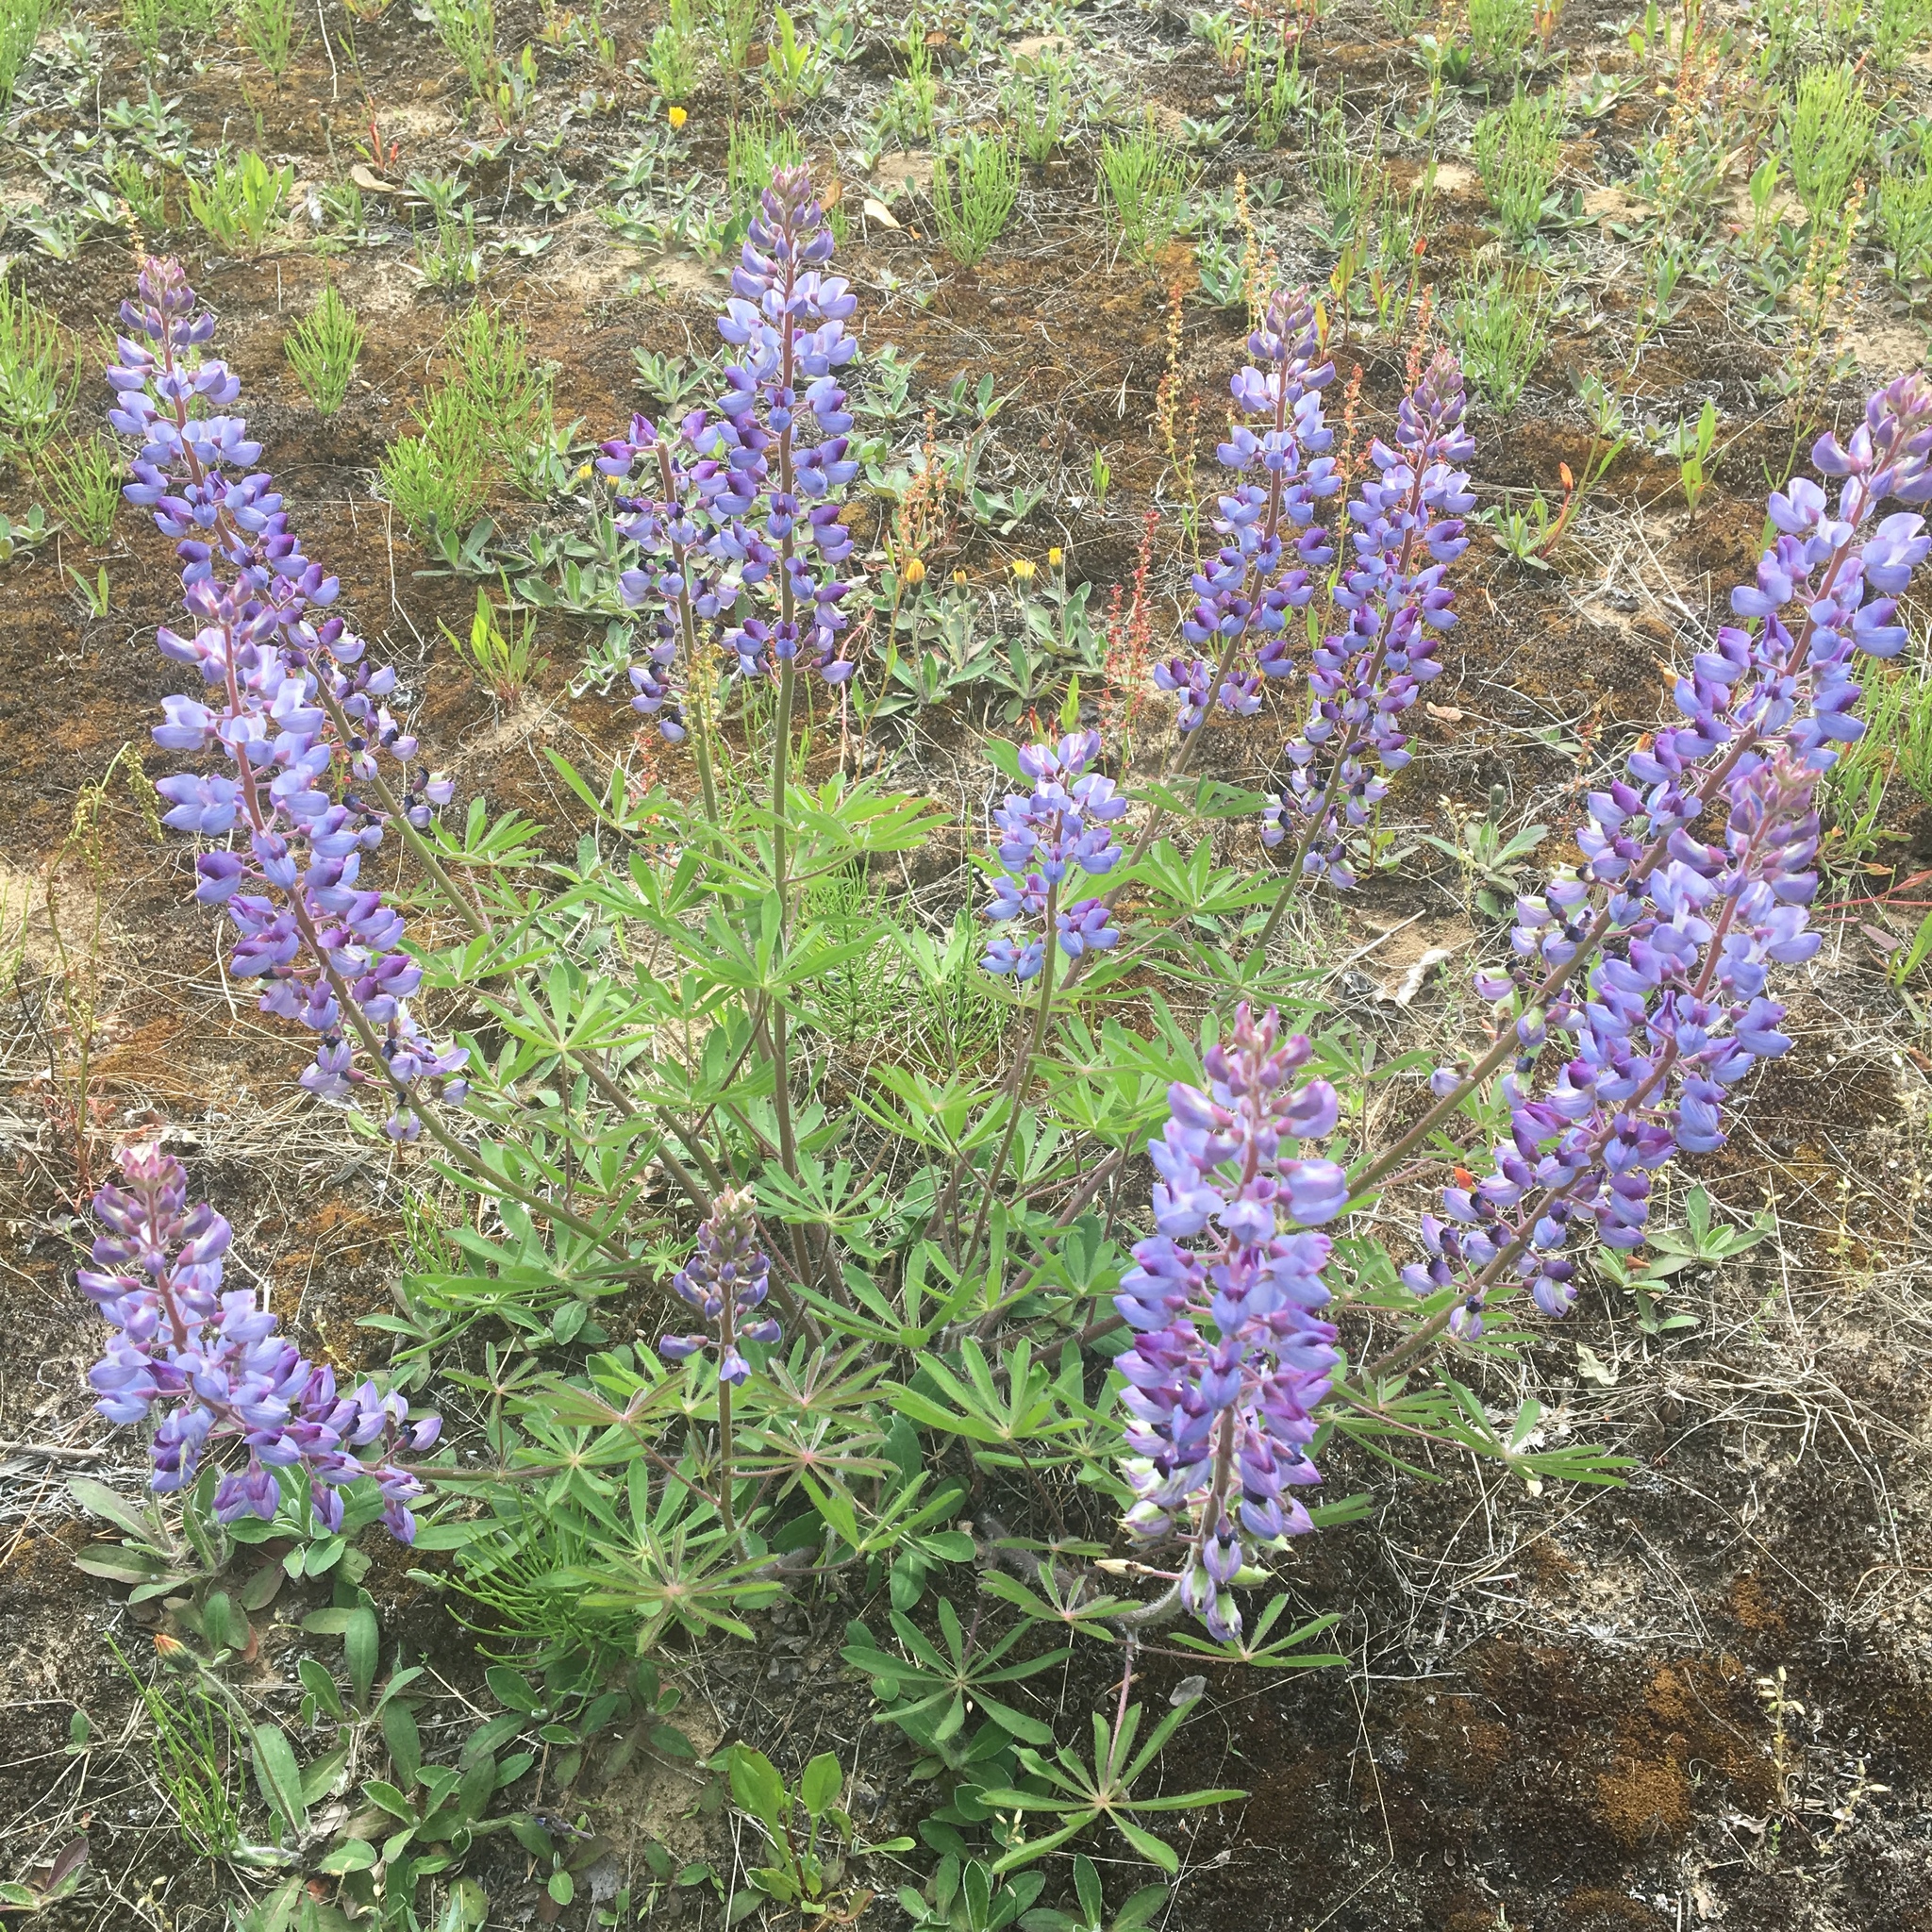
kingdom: Plantae
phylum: Tracheophyta
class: Magnoliopsida
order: Fabales
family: Fabaceae
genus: Lupinus
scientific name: Lupinus perennis
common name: Sundial lupine
